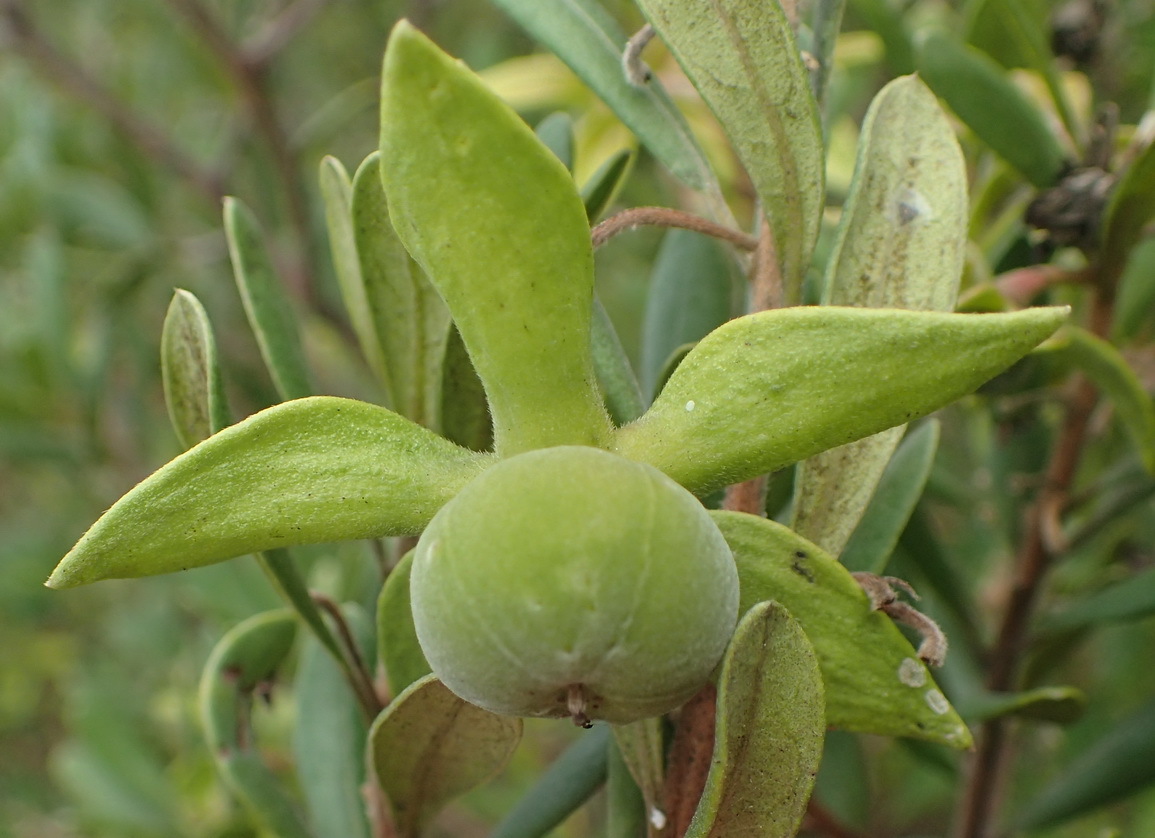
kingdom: Plantae
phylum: Tracheophyta
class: Magnoliopsida
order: Ericales
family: Ebenaceae
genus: Diospyros
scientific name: Diospyros dichrophylla
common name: Common star-apple
